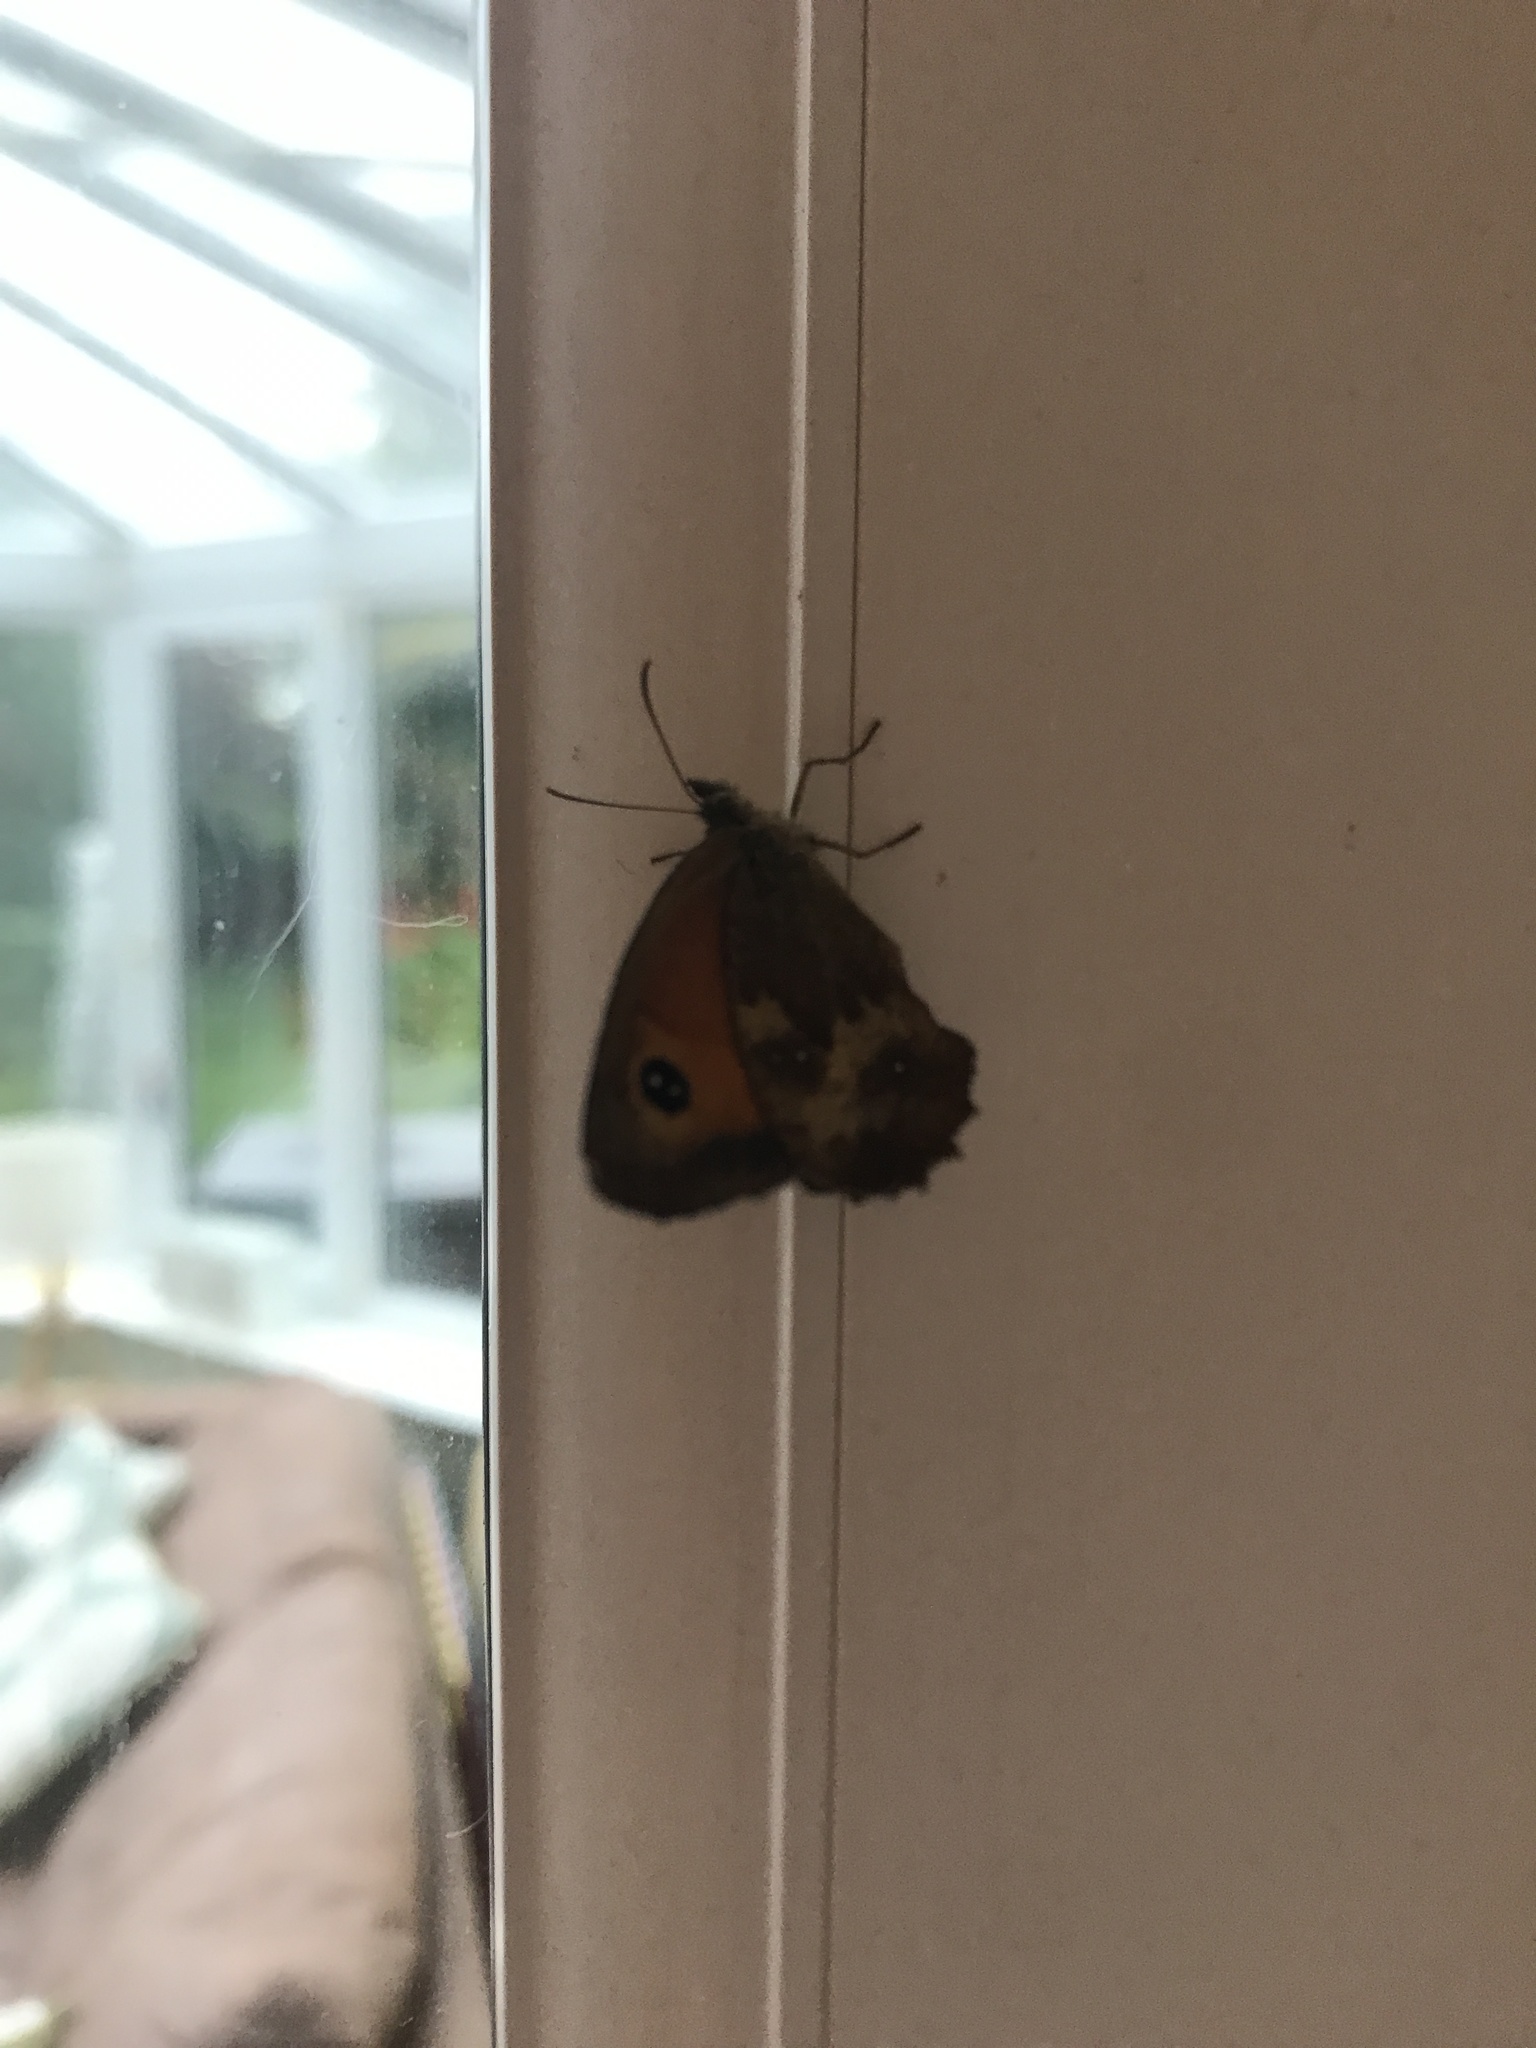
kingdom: Animalia
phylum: Arthropoda
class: Insecta
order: Lepidoptera
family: Nymphalidae
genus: Pyronia
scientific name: Pyronia tithonus
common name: Gatekeeper
